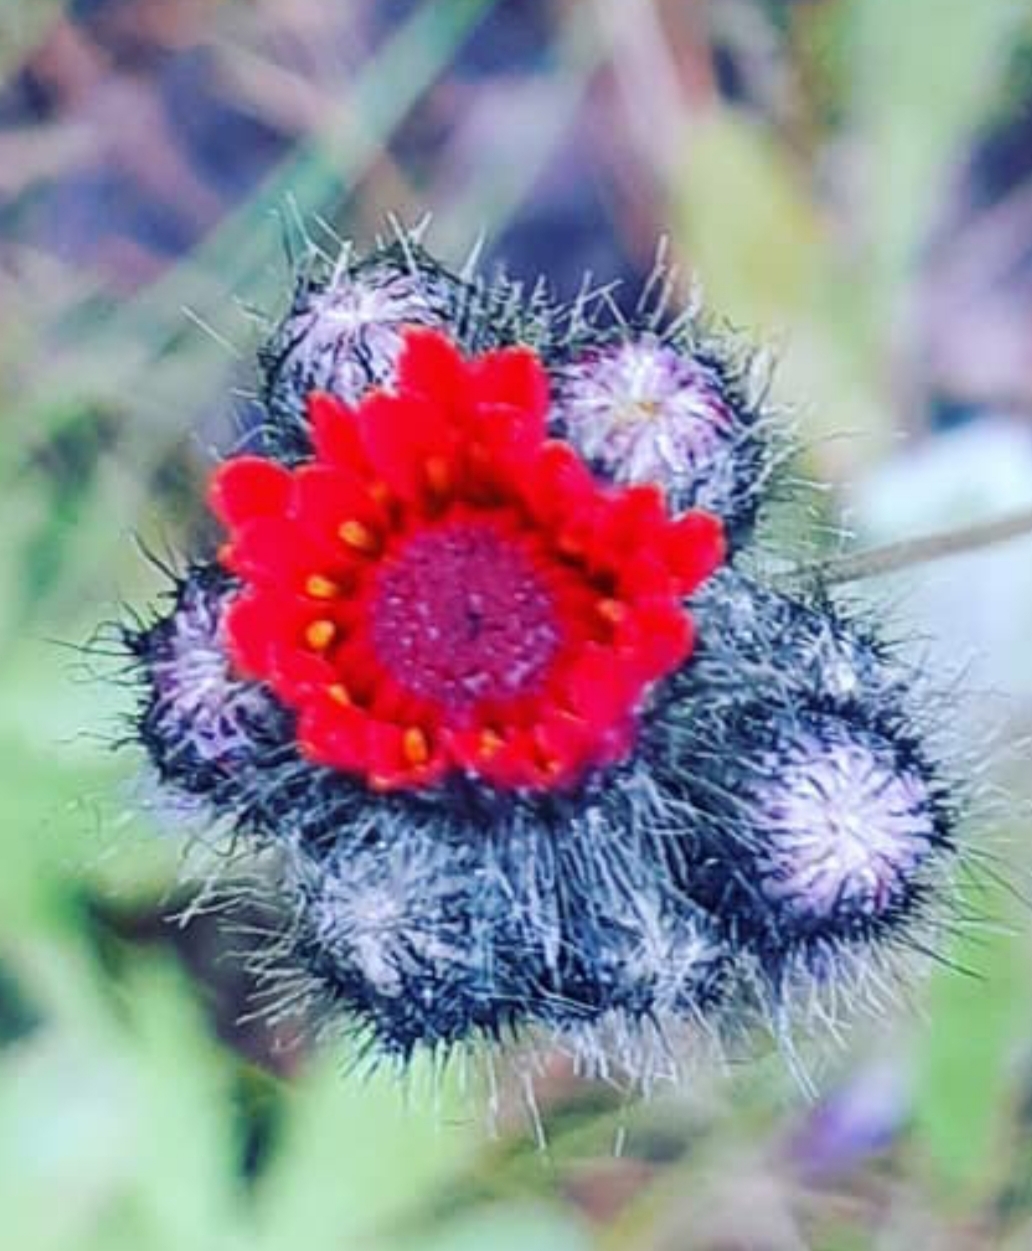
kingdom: Plantae
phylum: Tracheophyta
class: Magnoliopsida
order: Asterales
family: Asteraceae
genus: Pilosella
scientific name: Pilosella aurantiaca
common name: Fox-and-cubs
